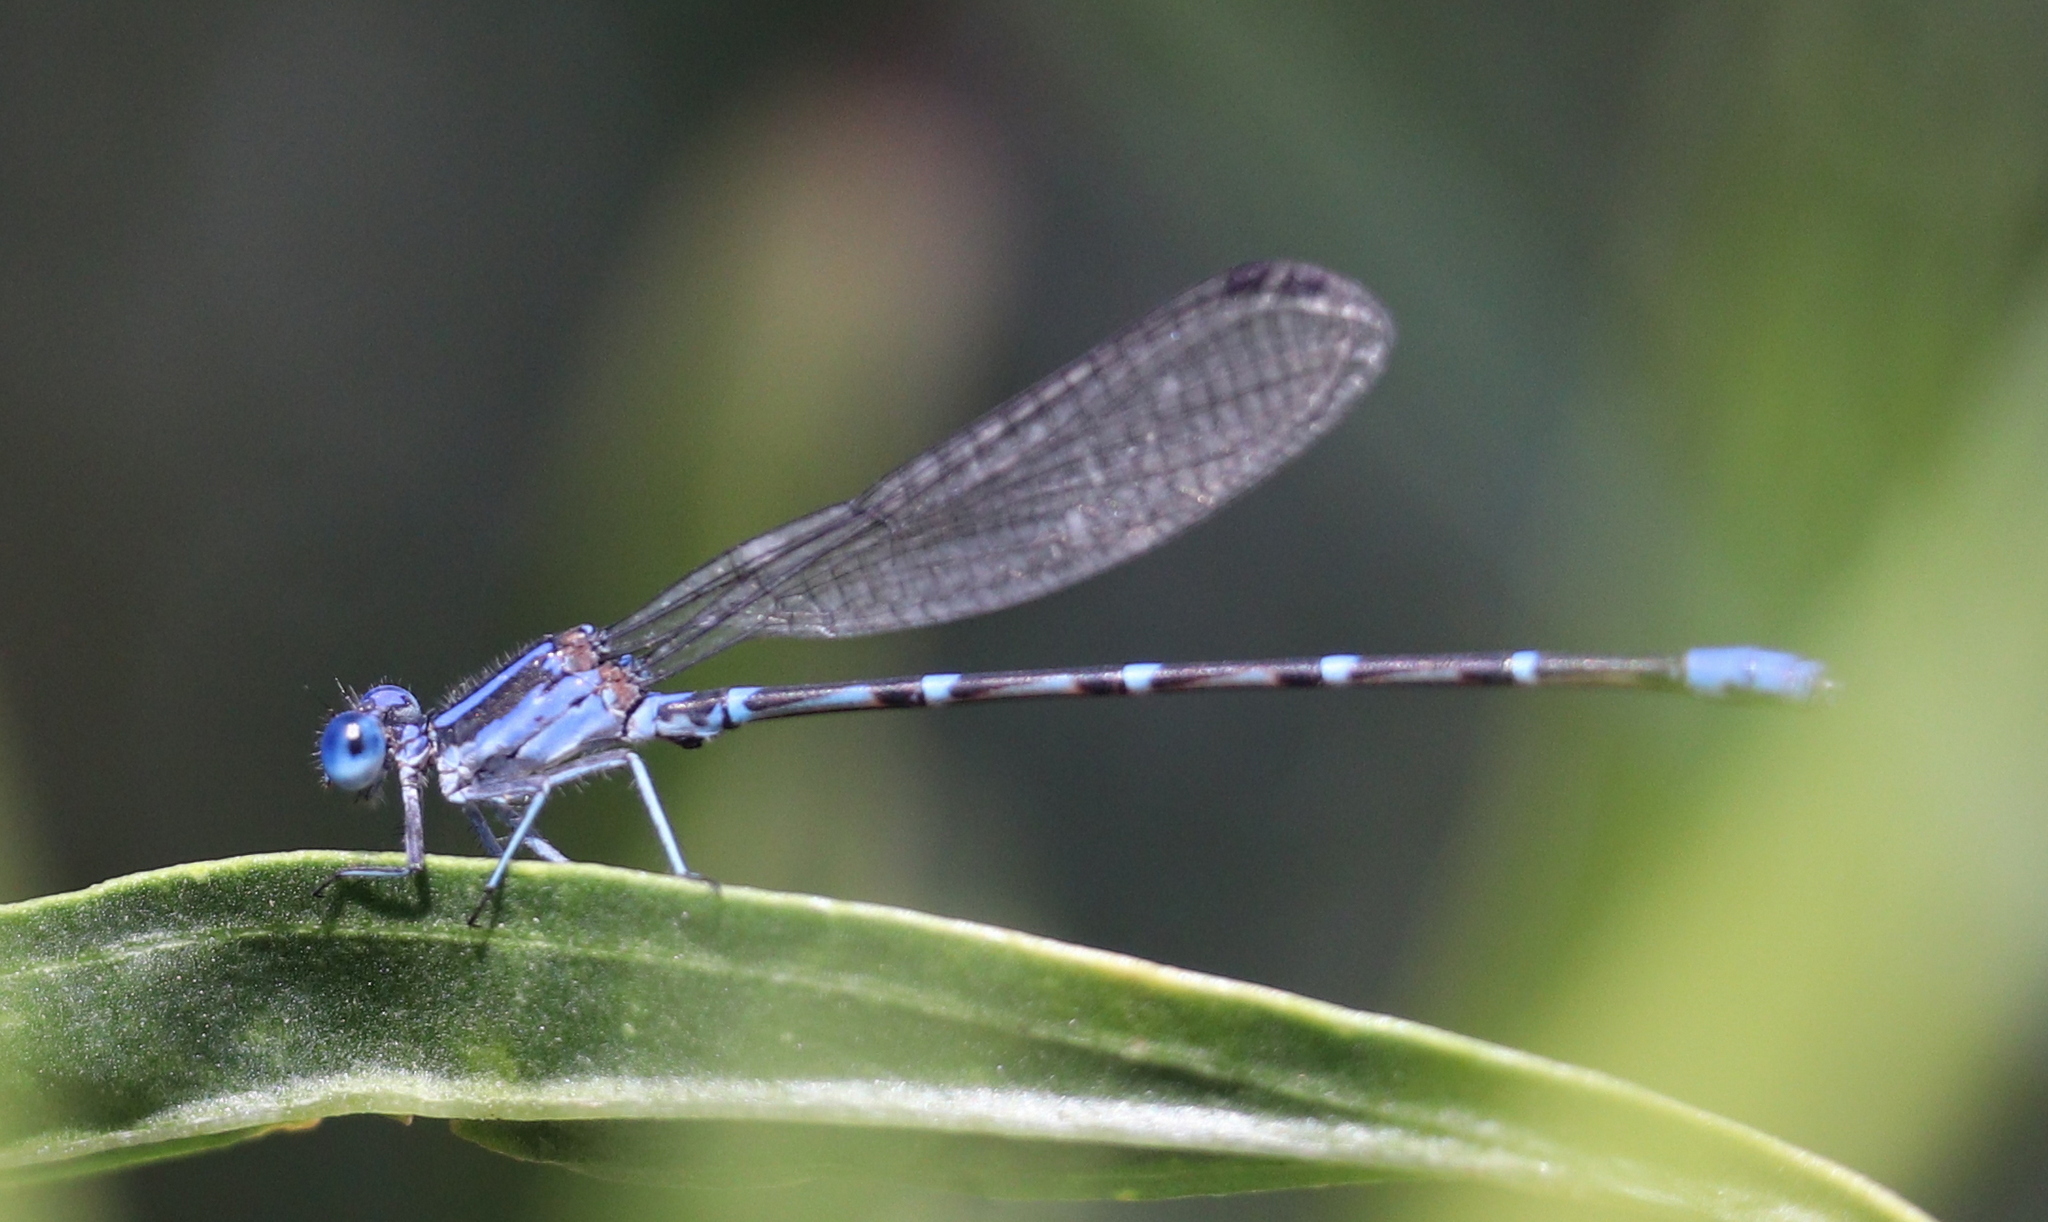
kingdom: Animalia
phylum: Arthropoda
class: Insecta
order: Odonata
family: Coenagrionidae
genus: Argia
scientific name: Argia sedula
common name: Blue-ringed dancer
